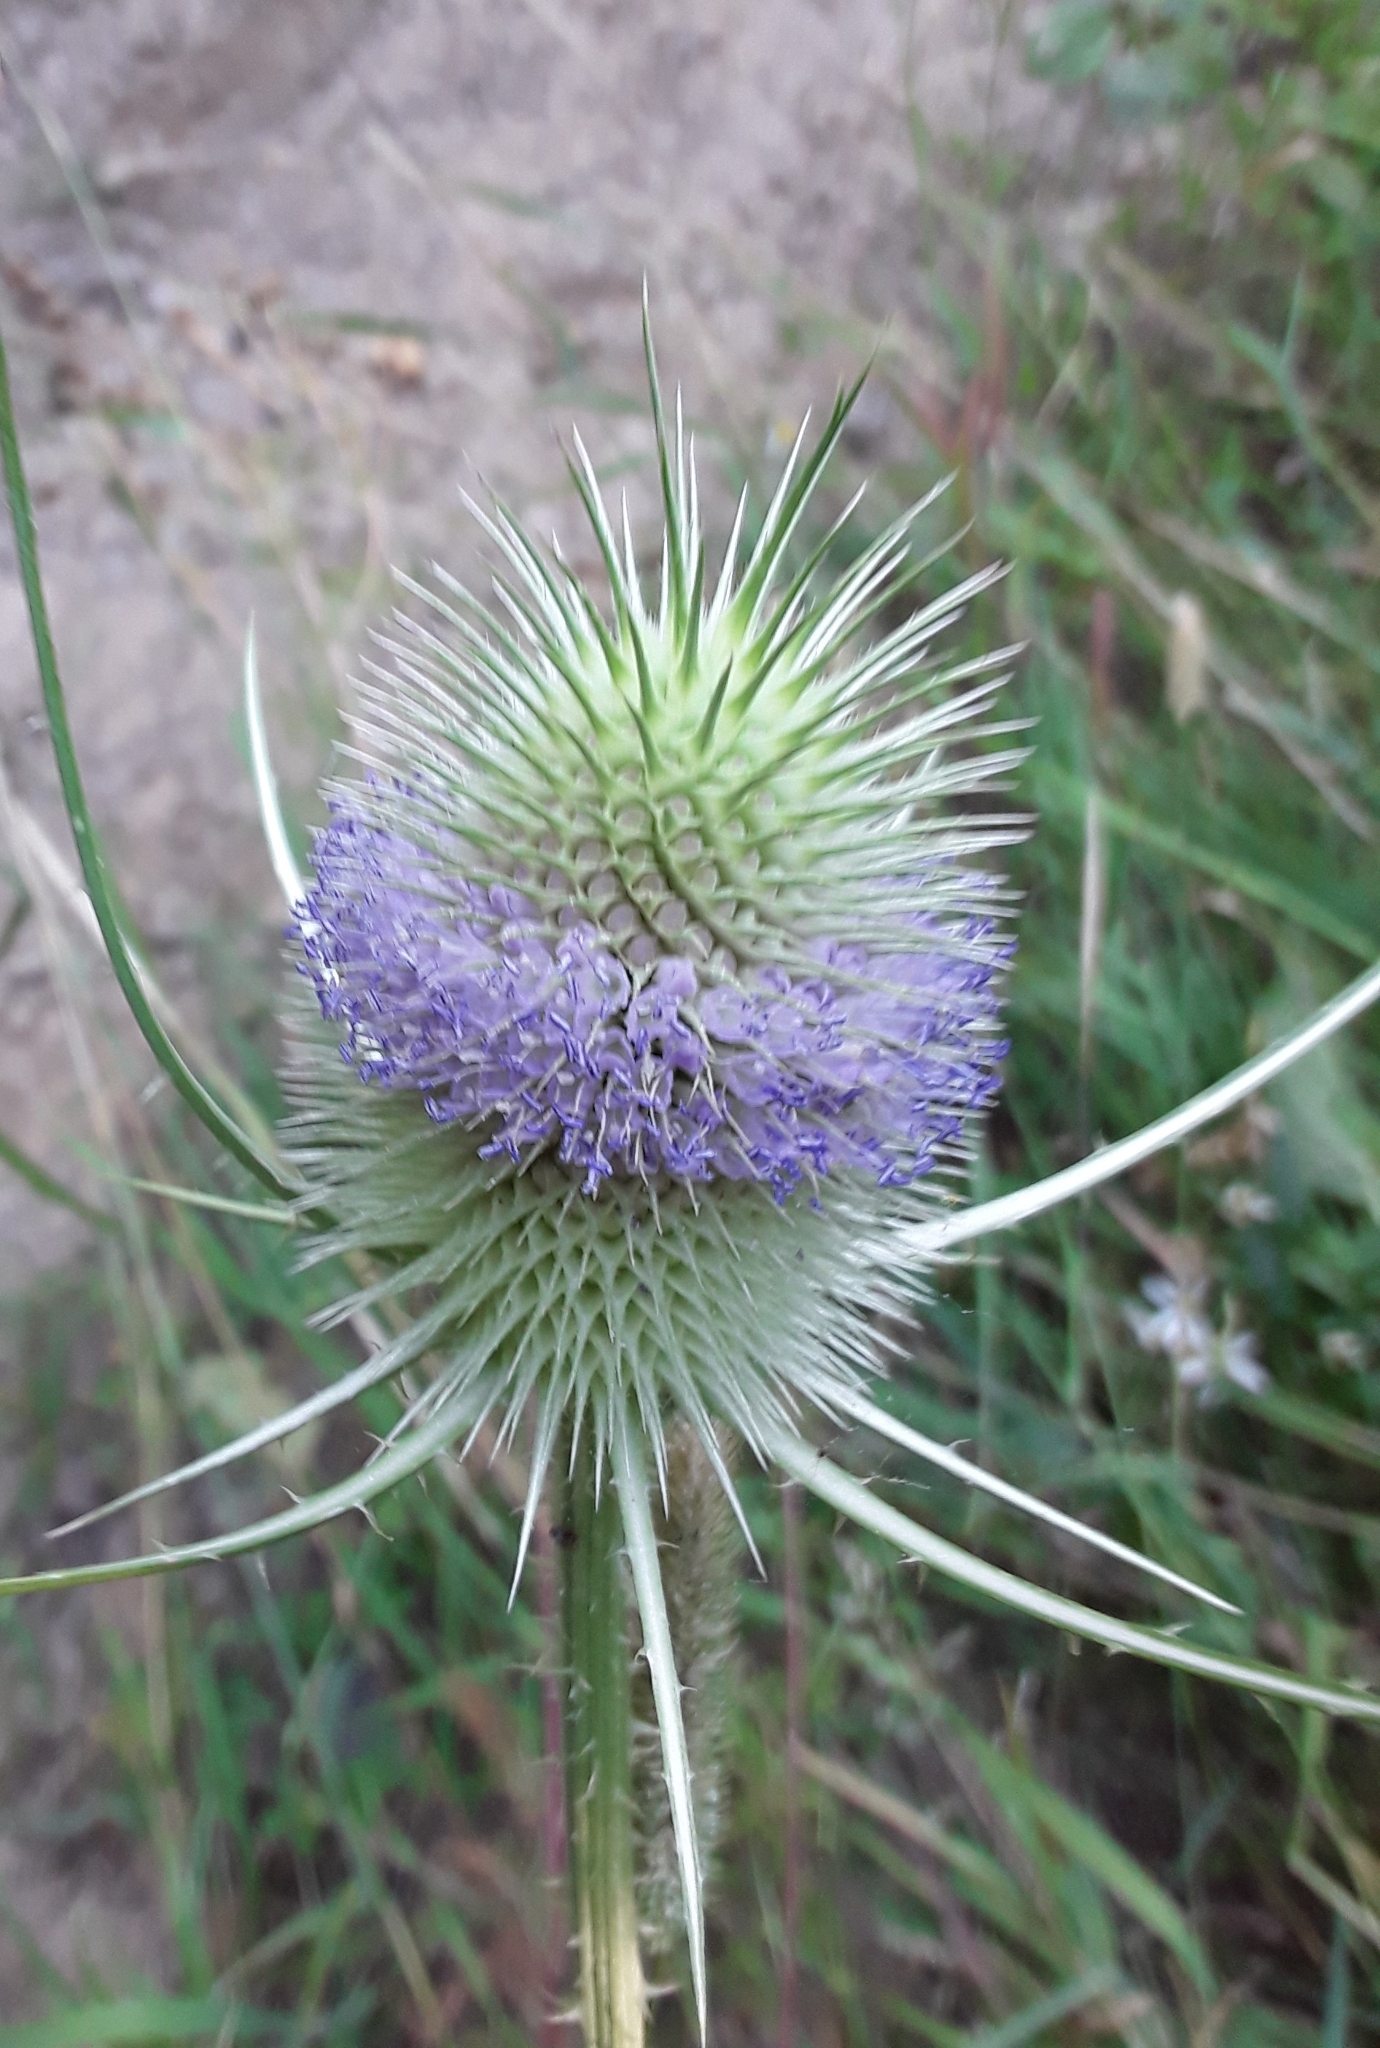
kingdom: Plantae
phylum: Tracheophyta
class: Magnoliopsida
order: Dipsacales
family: Caprifoliaceae
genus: Dipsacus
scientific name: Dipsacus fullonum
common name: Teasel
